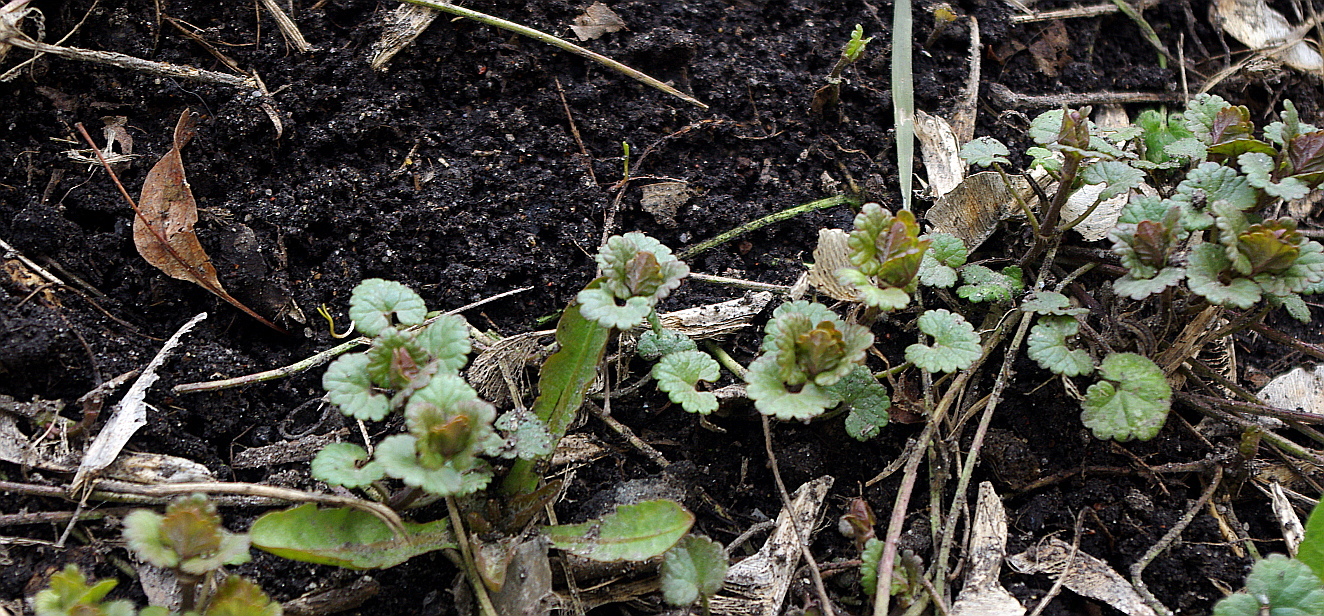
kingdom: Plantae
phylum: Tracheophyta
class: Magnoliopsida
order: Lamiales
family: Lamiaceae
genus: Glechoma
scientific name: Glechoma hederacea
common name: Ground ivy
